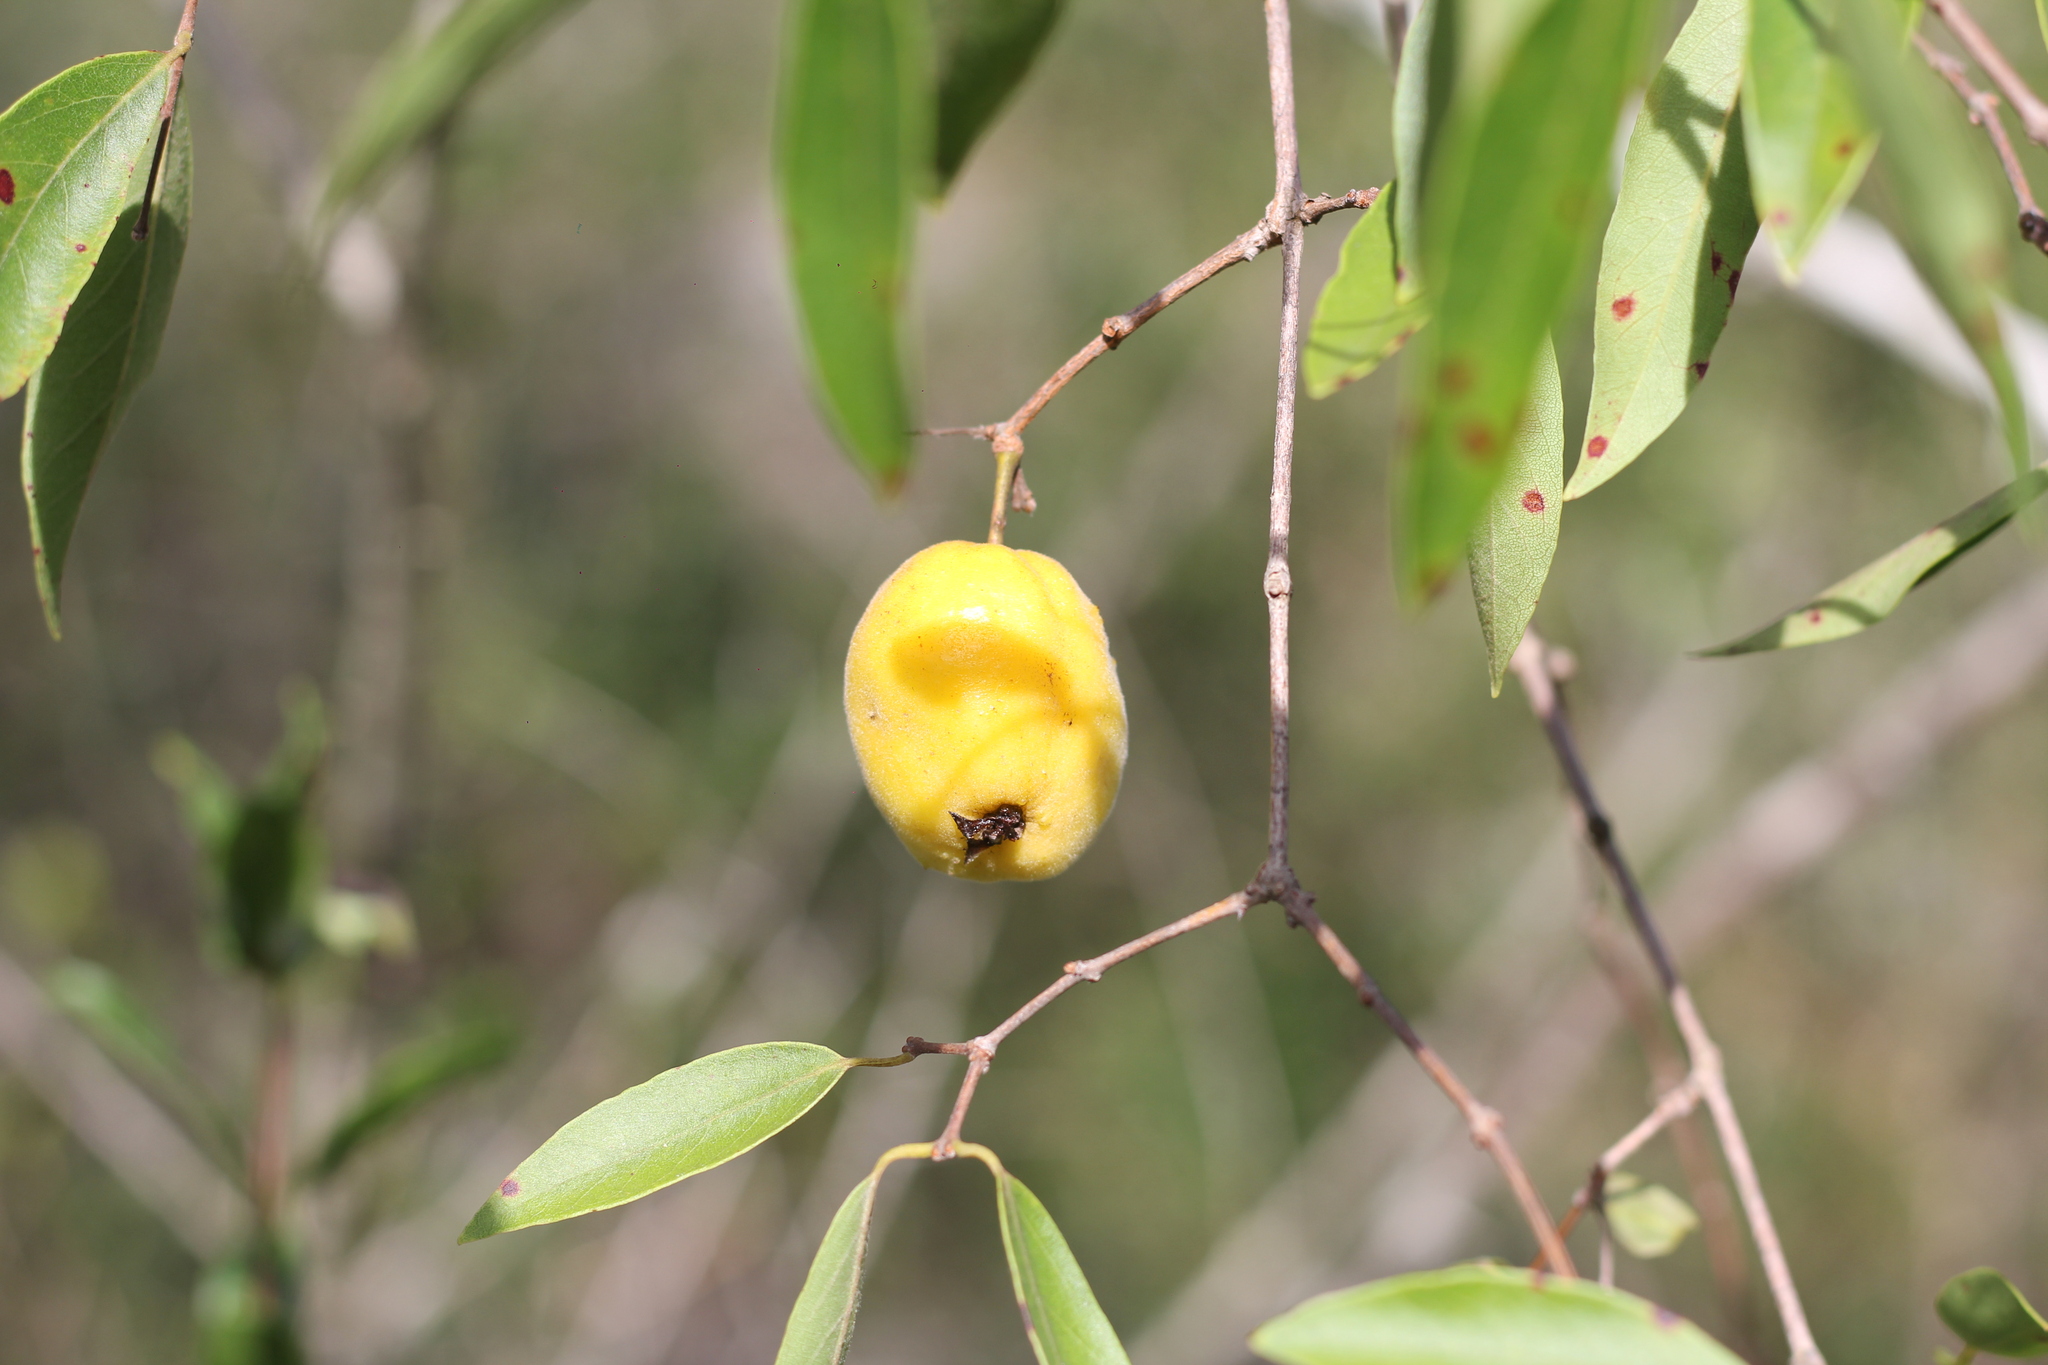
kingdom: Plantae
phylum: Tracheophyta
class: Magnoliopsida
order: Myrtales
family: Myrtaceae
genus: Eugenia
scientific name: Eugenia myrcianthes
